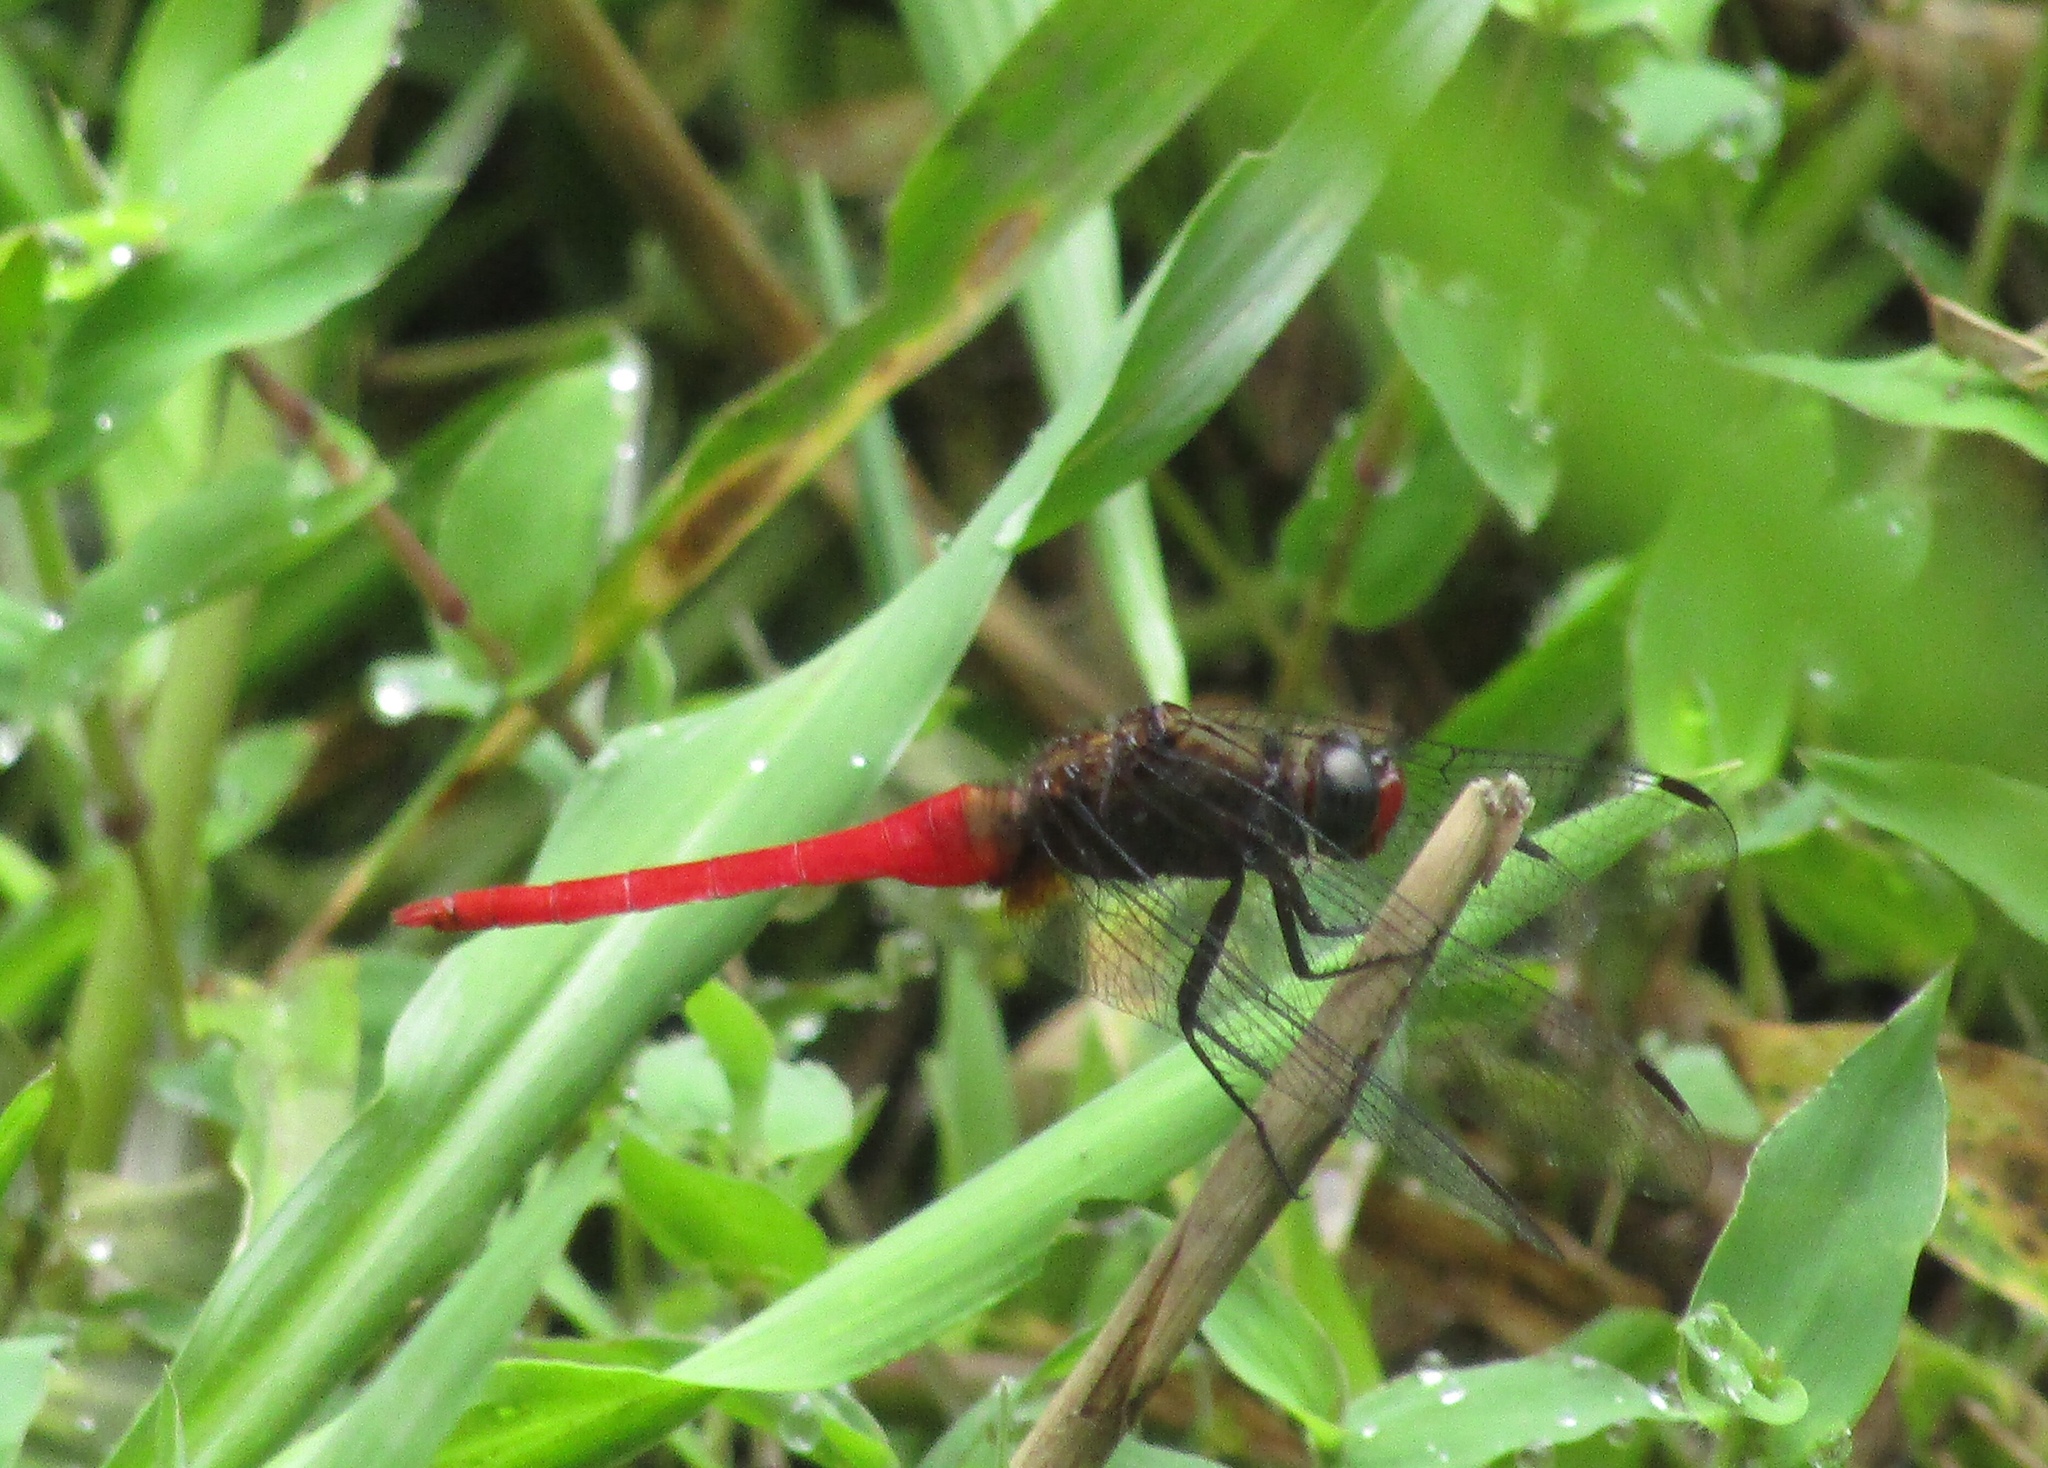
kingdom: Animalia
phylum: Arthropoda
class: Insecta
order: Odonata
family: Libellulidae
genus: Orthetrum
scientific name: Orthetrum chrysis
